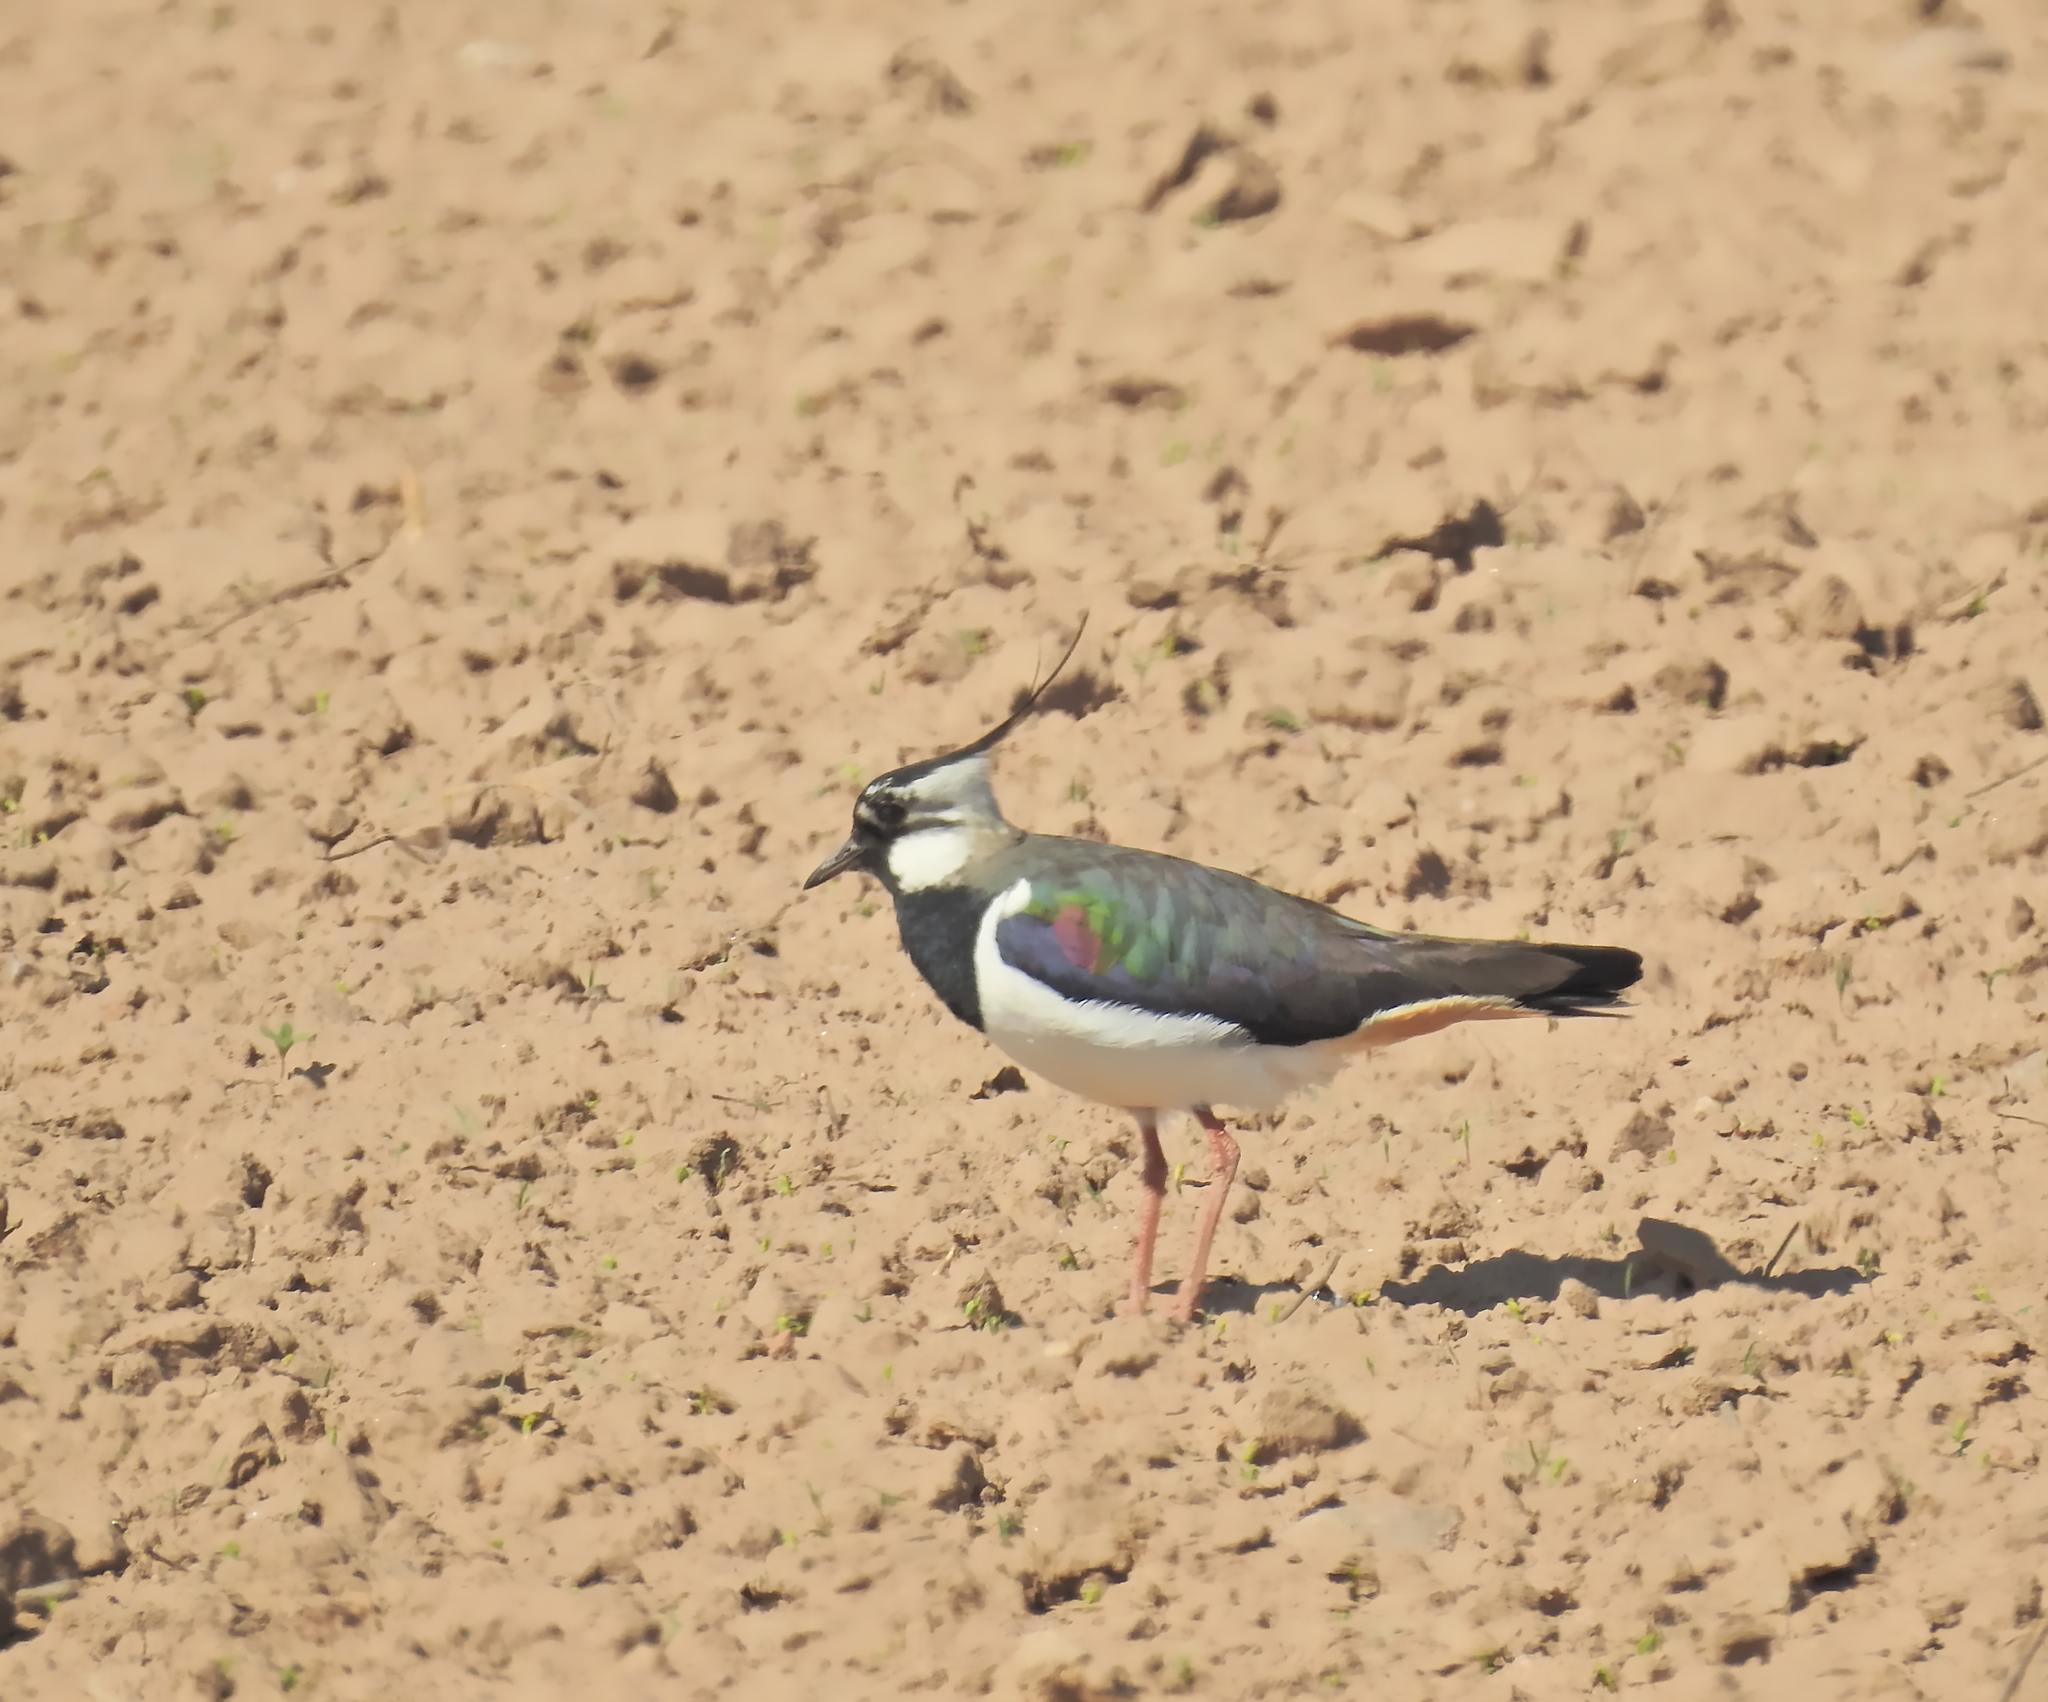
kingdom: Animalia
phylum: Chordata
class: Aves
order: Charadriiformes
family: Charadriidae
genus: Vanellus
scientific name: Vanellus vanellus
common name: Northern lapwing
